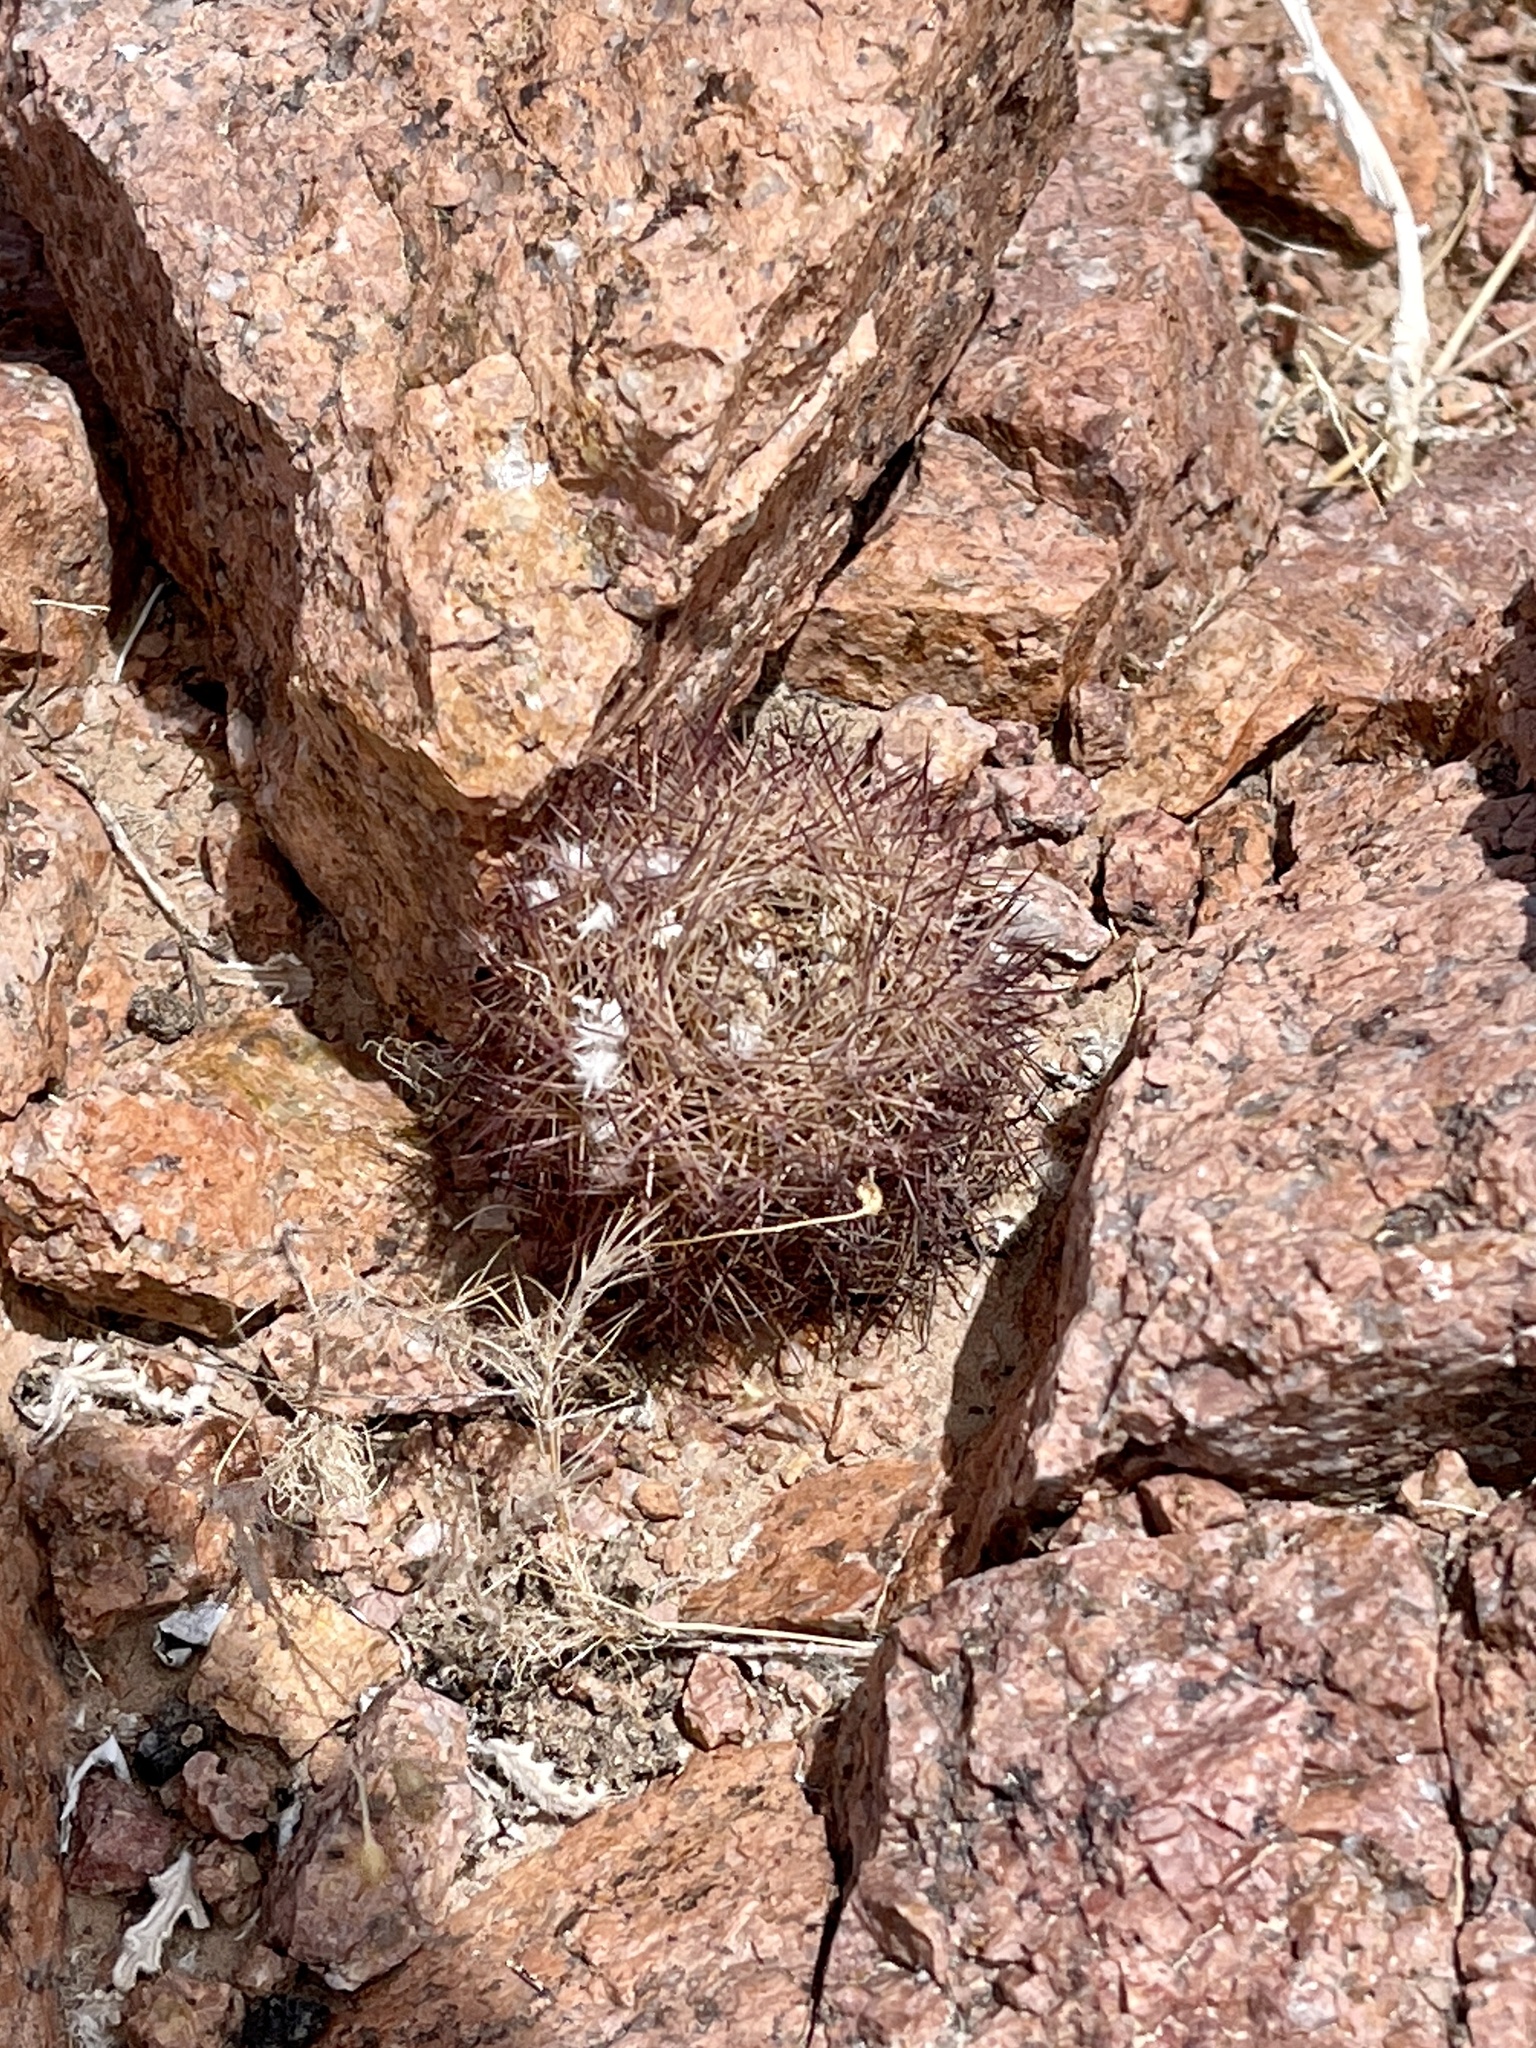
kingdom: Plantae
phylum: Tracheophyta
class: Magnoliopsida
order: Caryophyllales
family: Cactaceae
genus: Sclerocactus
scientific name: Sclerocactus intertextus
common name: White fish-hook cactus
